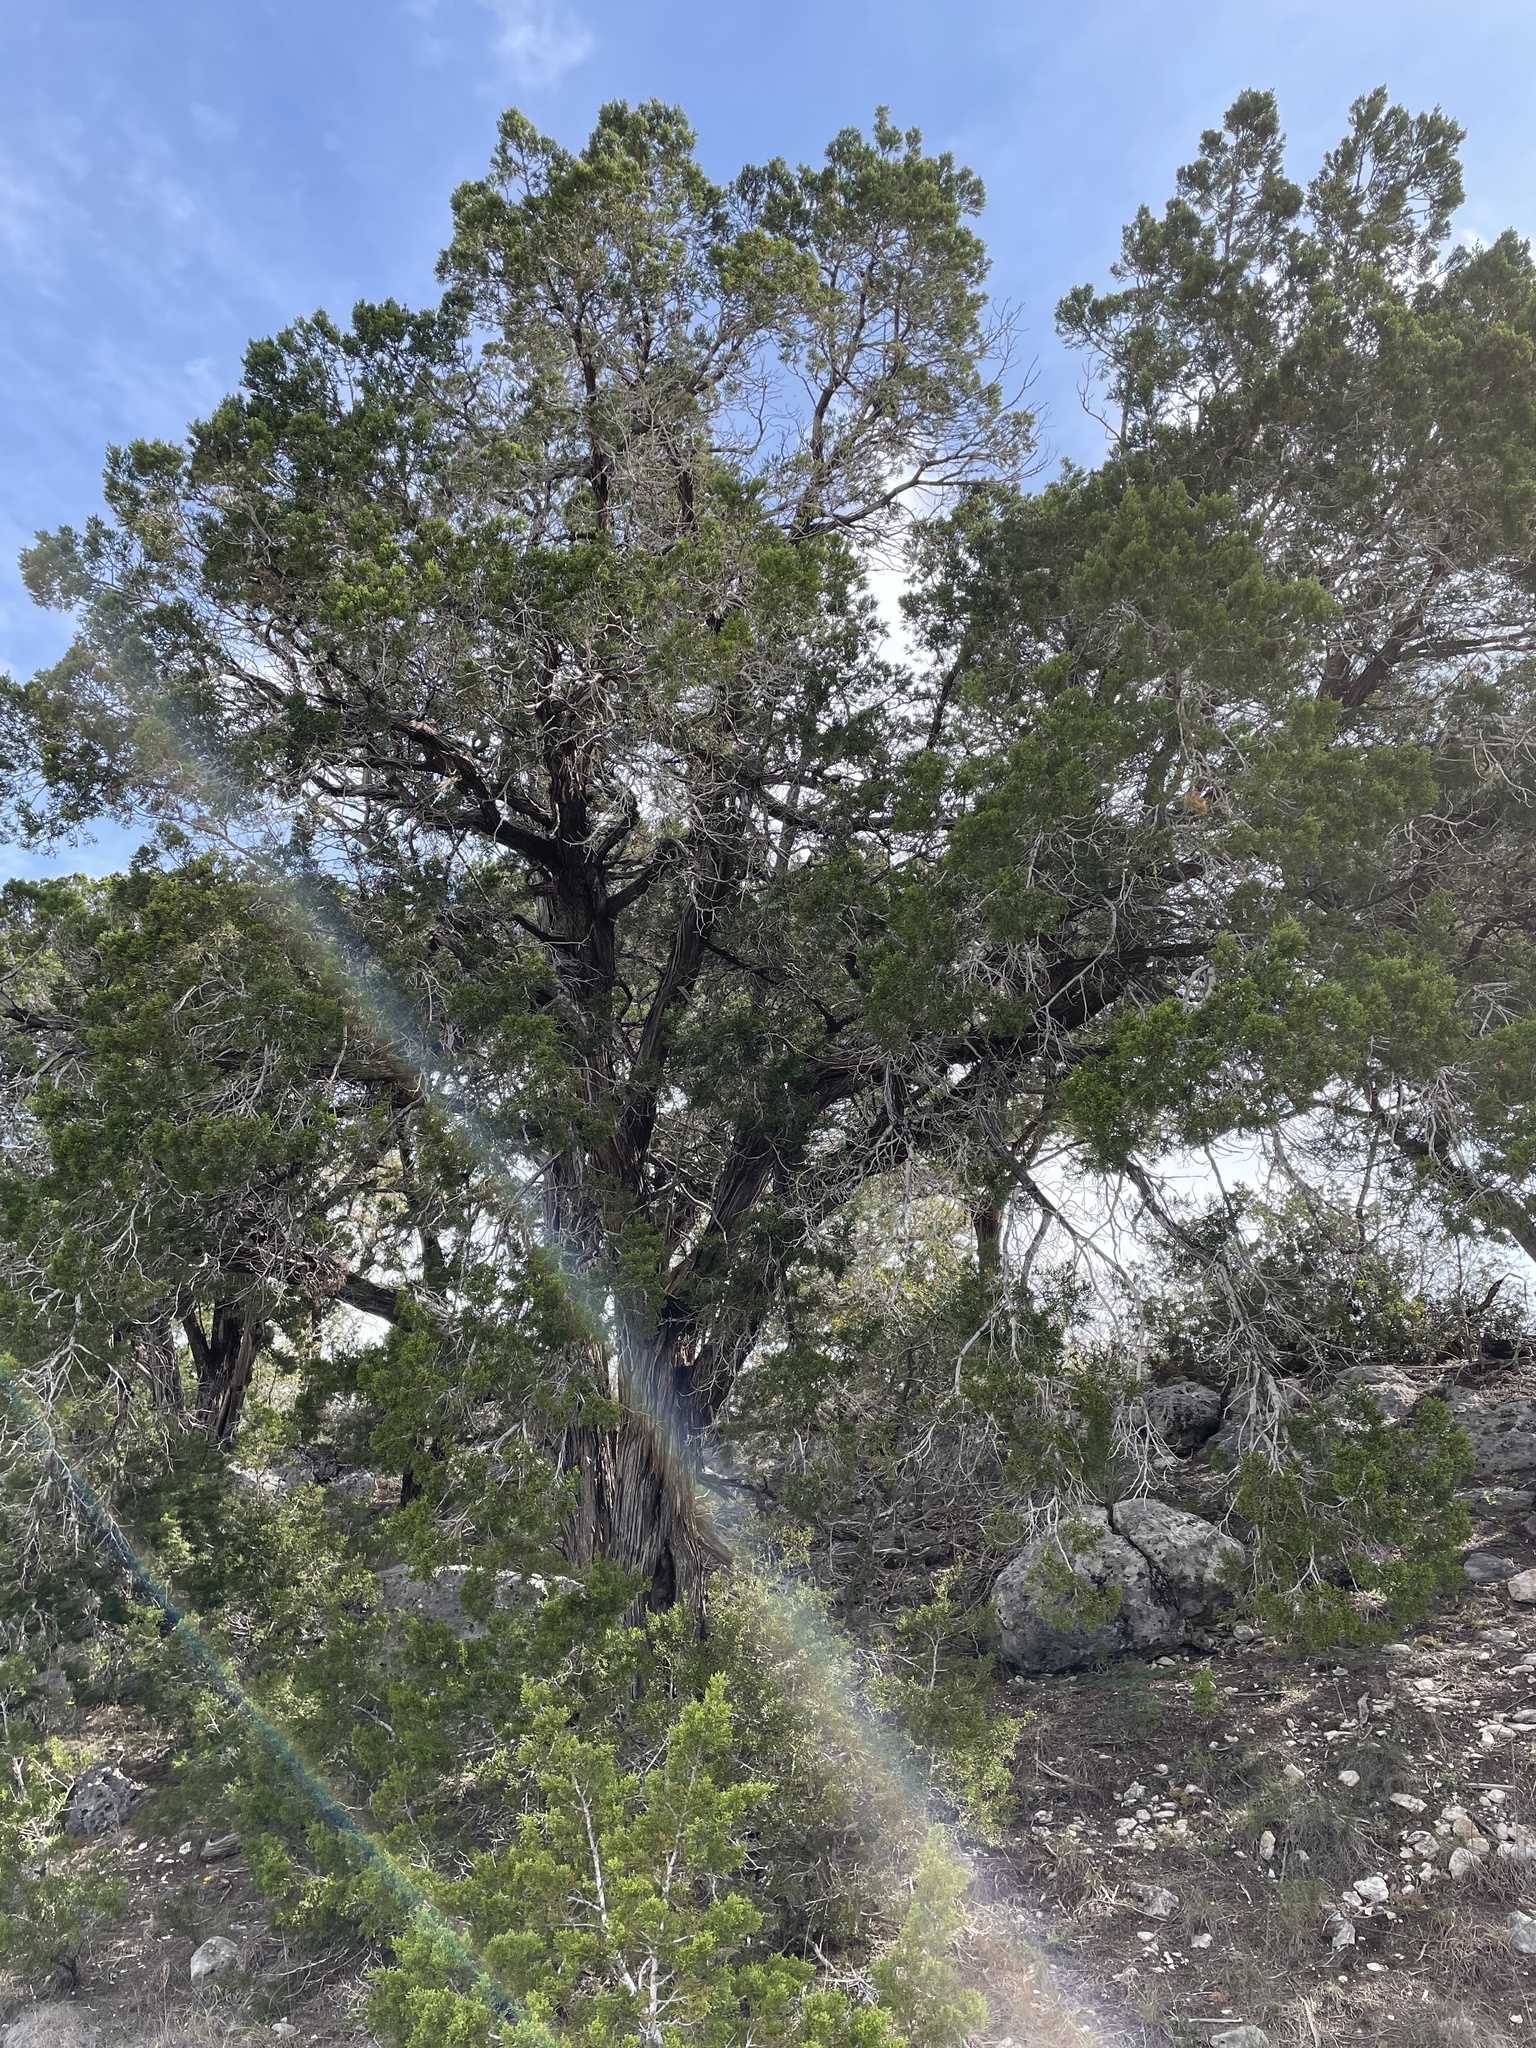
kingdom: Plantae
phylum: Tracheophyta
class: Pinopsida
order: Pinales
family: Cupressaceae
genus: Juniperus
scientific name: Juniperus ashei
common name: Mexican juniper
